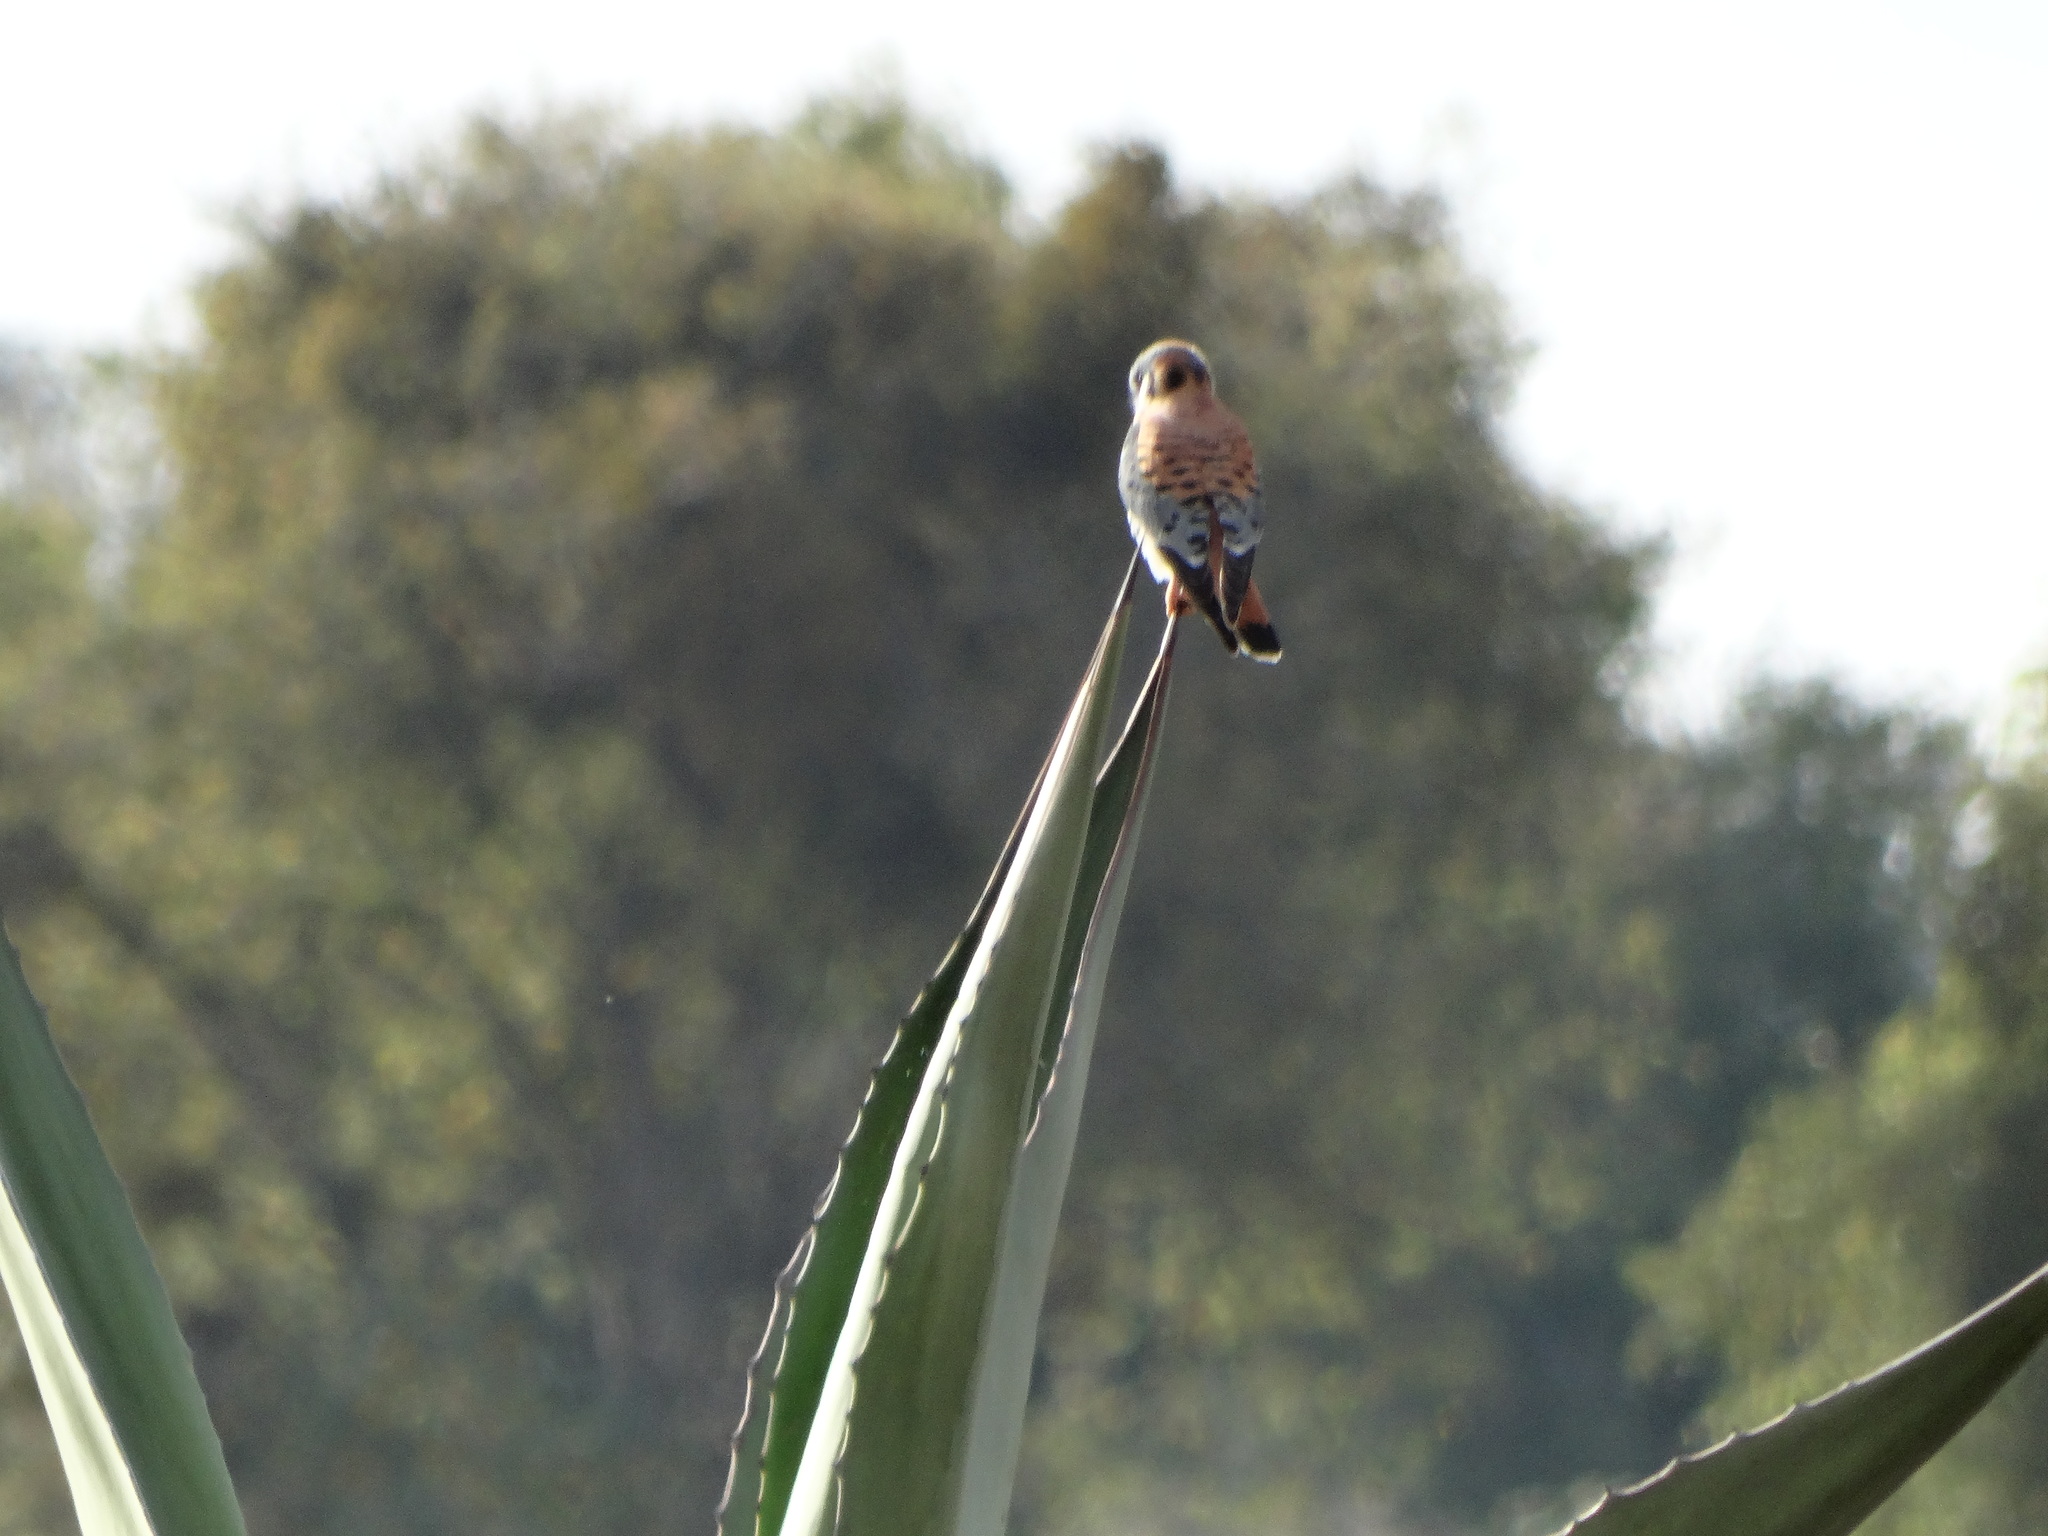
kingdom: Animalia
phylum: Chordata
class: Aves
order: Falconiformes
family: Falconidae
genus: Falco
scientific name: Falco sparverius
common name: American kestrel
